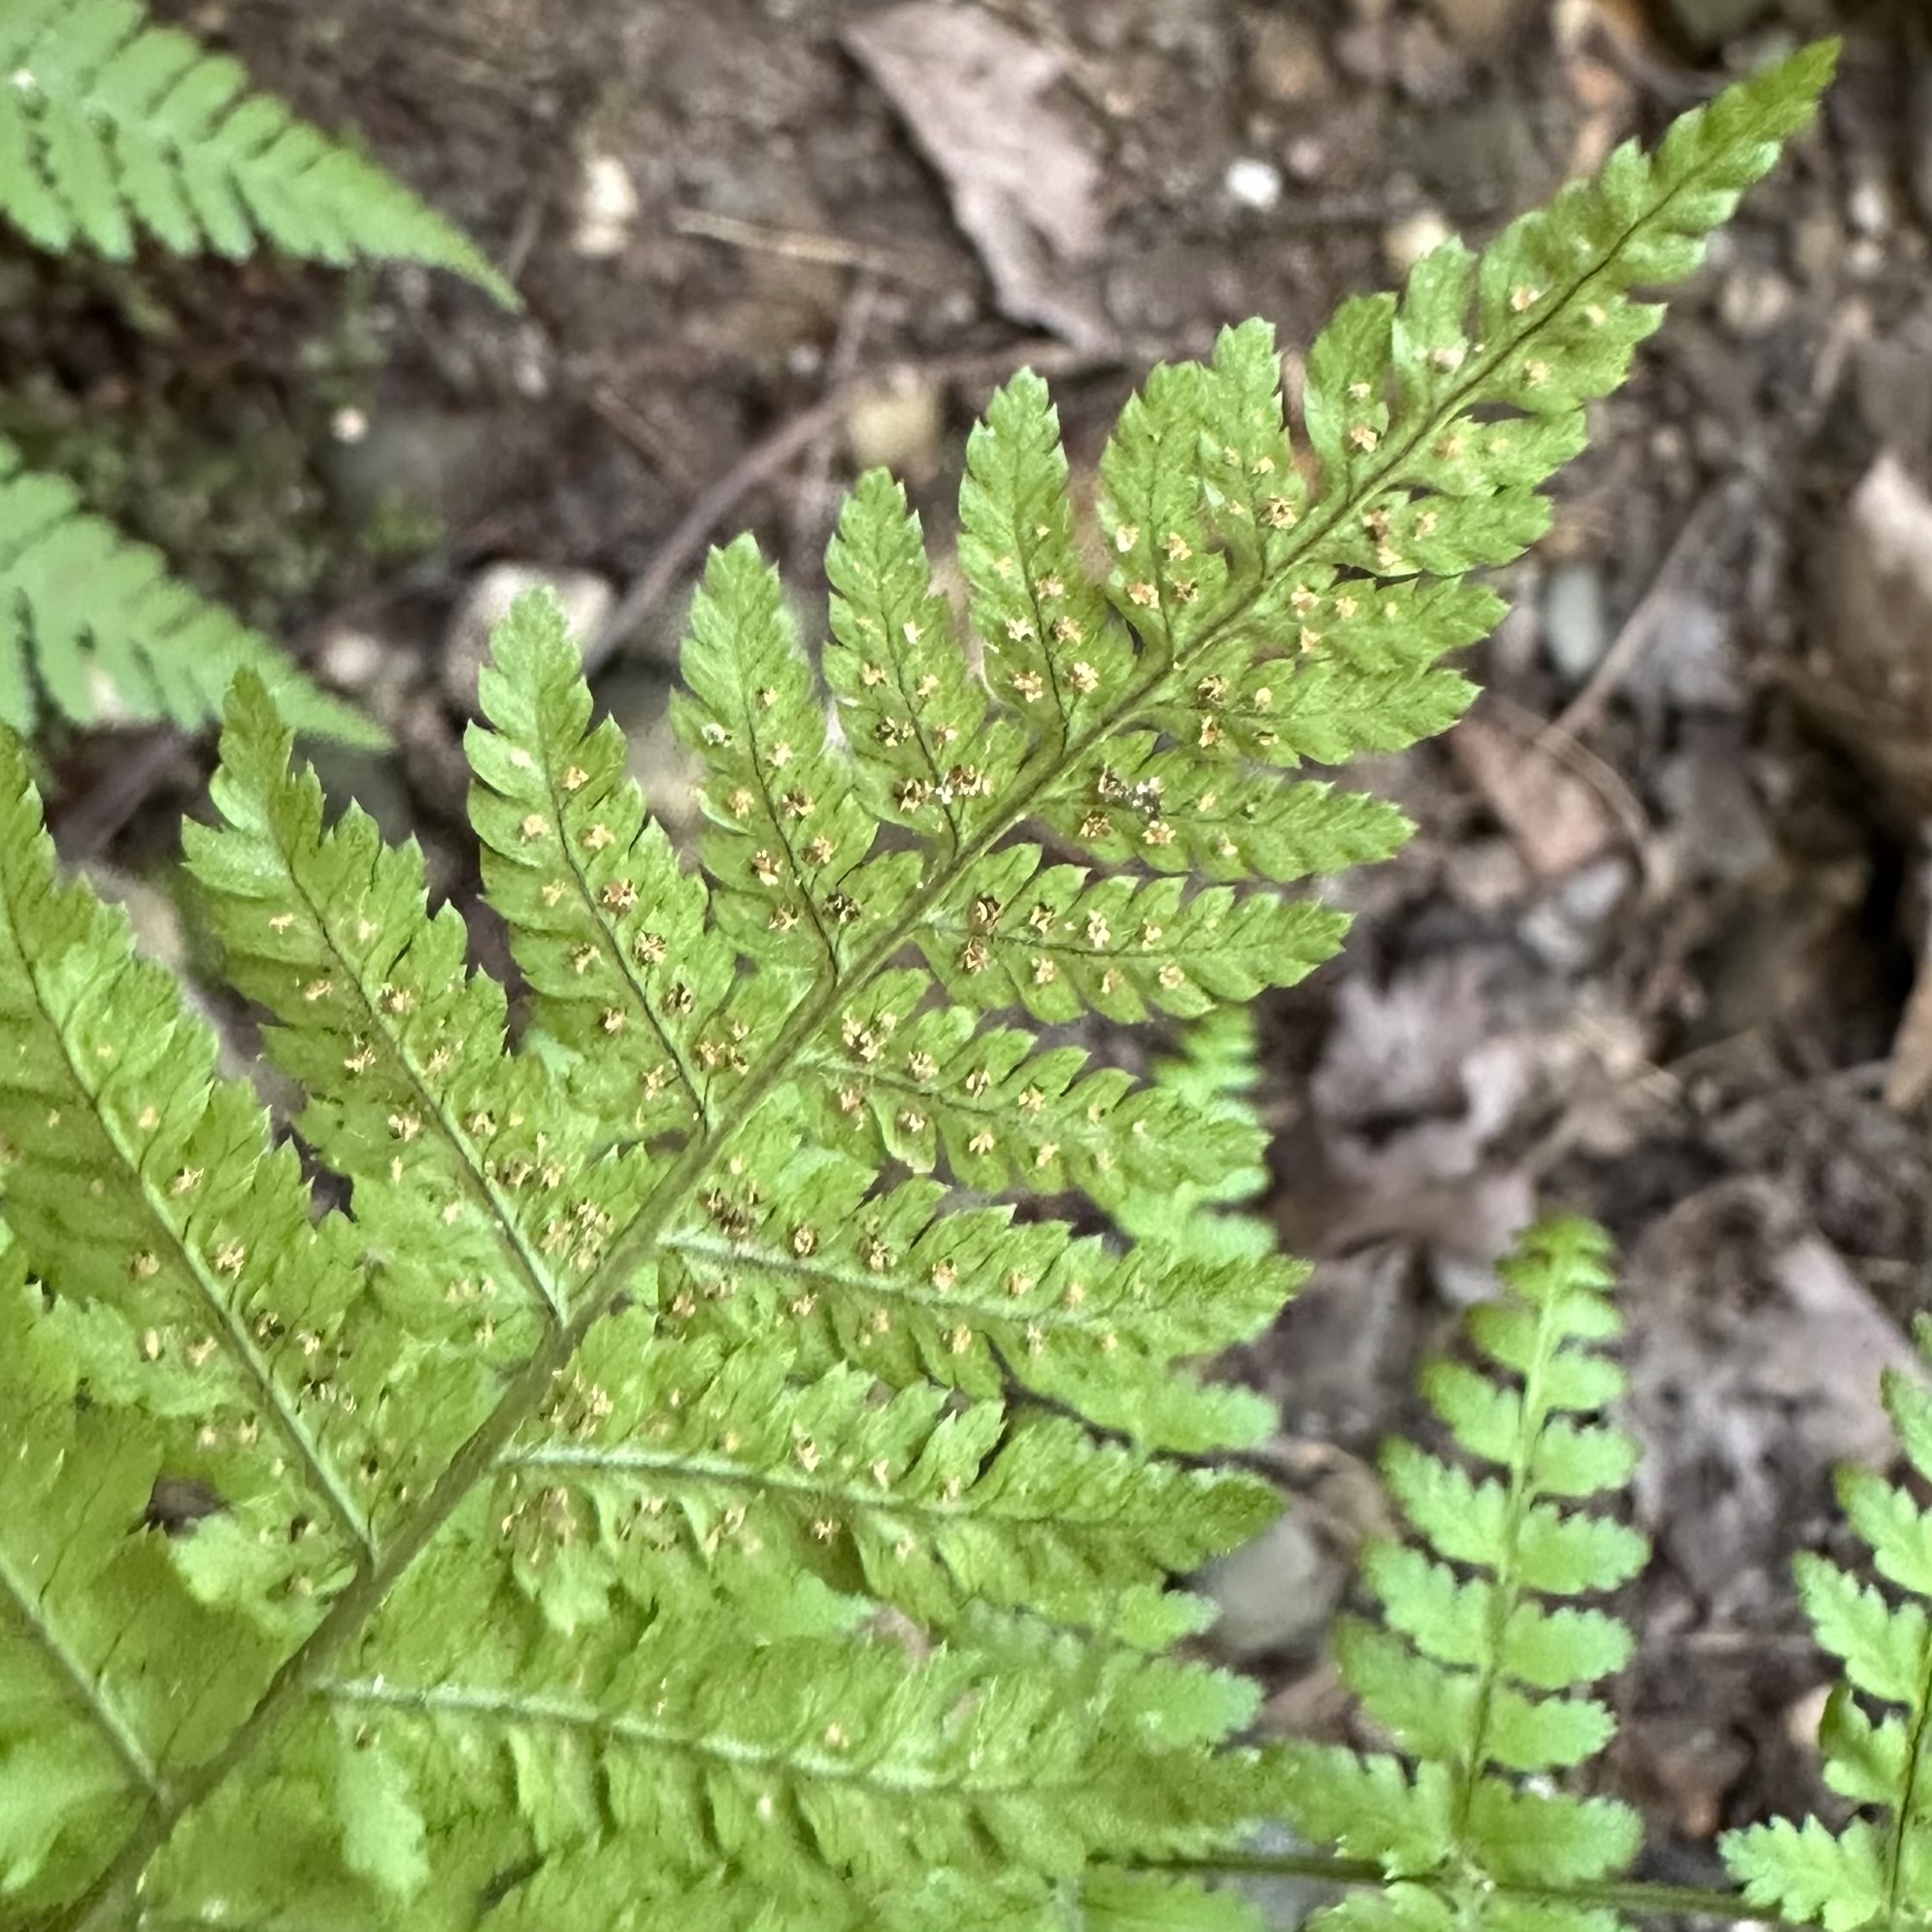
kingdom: Plantae
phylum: Tracheophyta
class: Polypodiopsida
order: Polypodiales
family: Dryopteridaceae
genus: Dryopteris
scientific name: Dryopteris intermedia
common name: Evergreen wood fern
